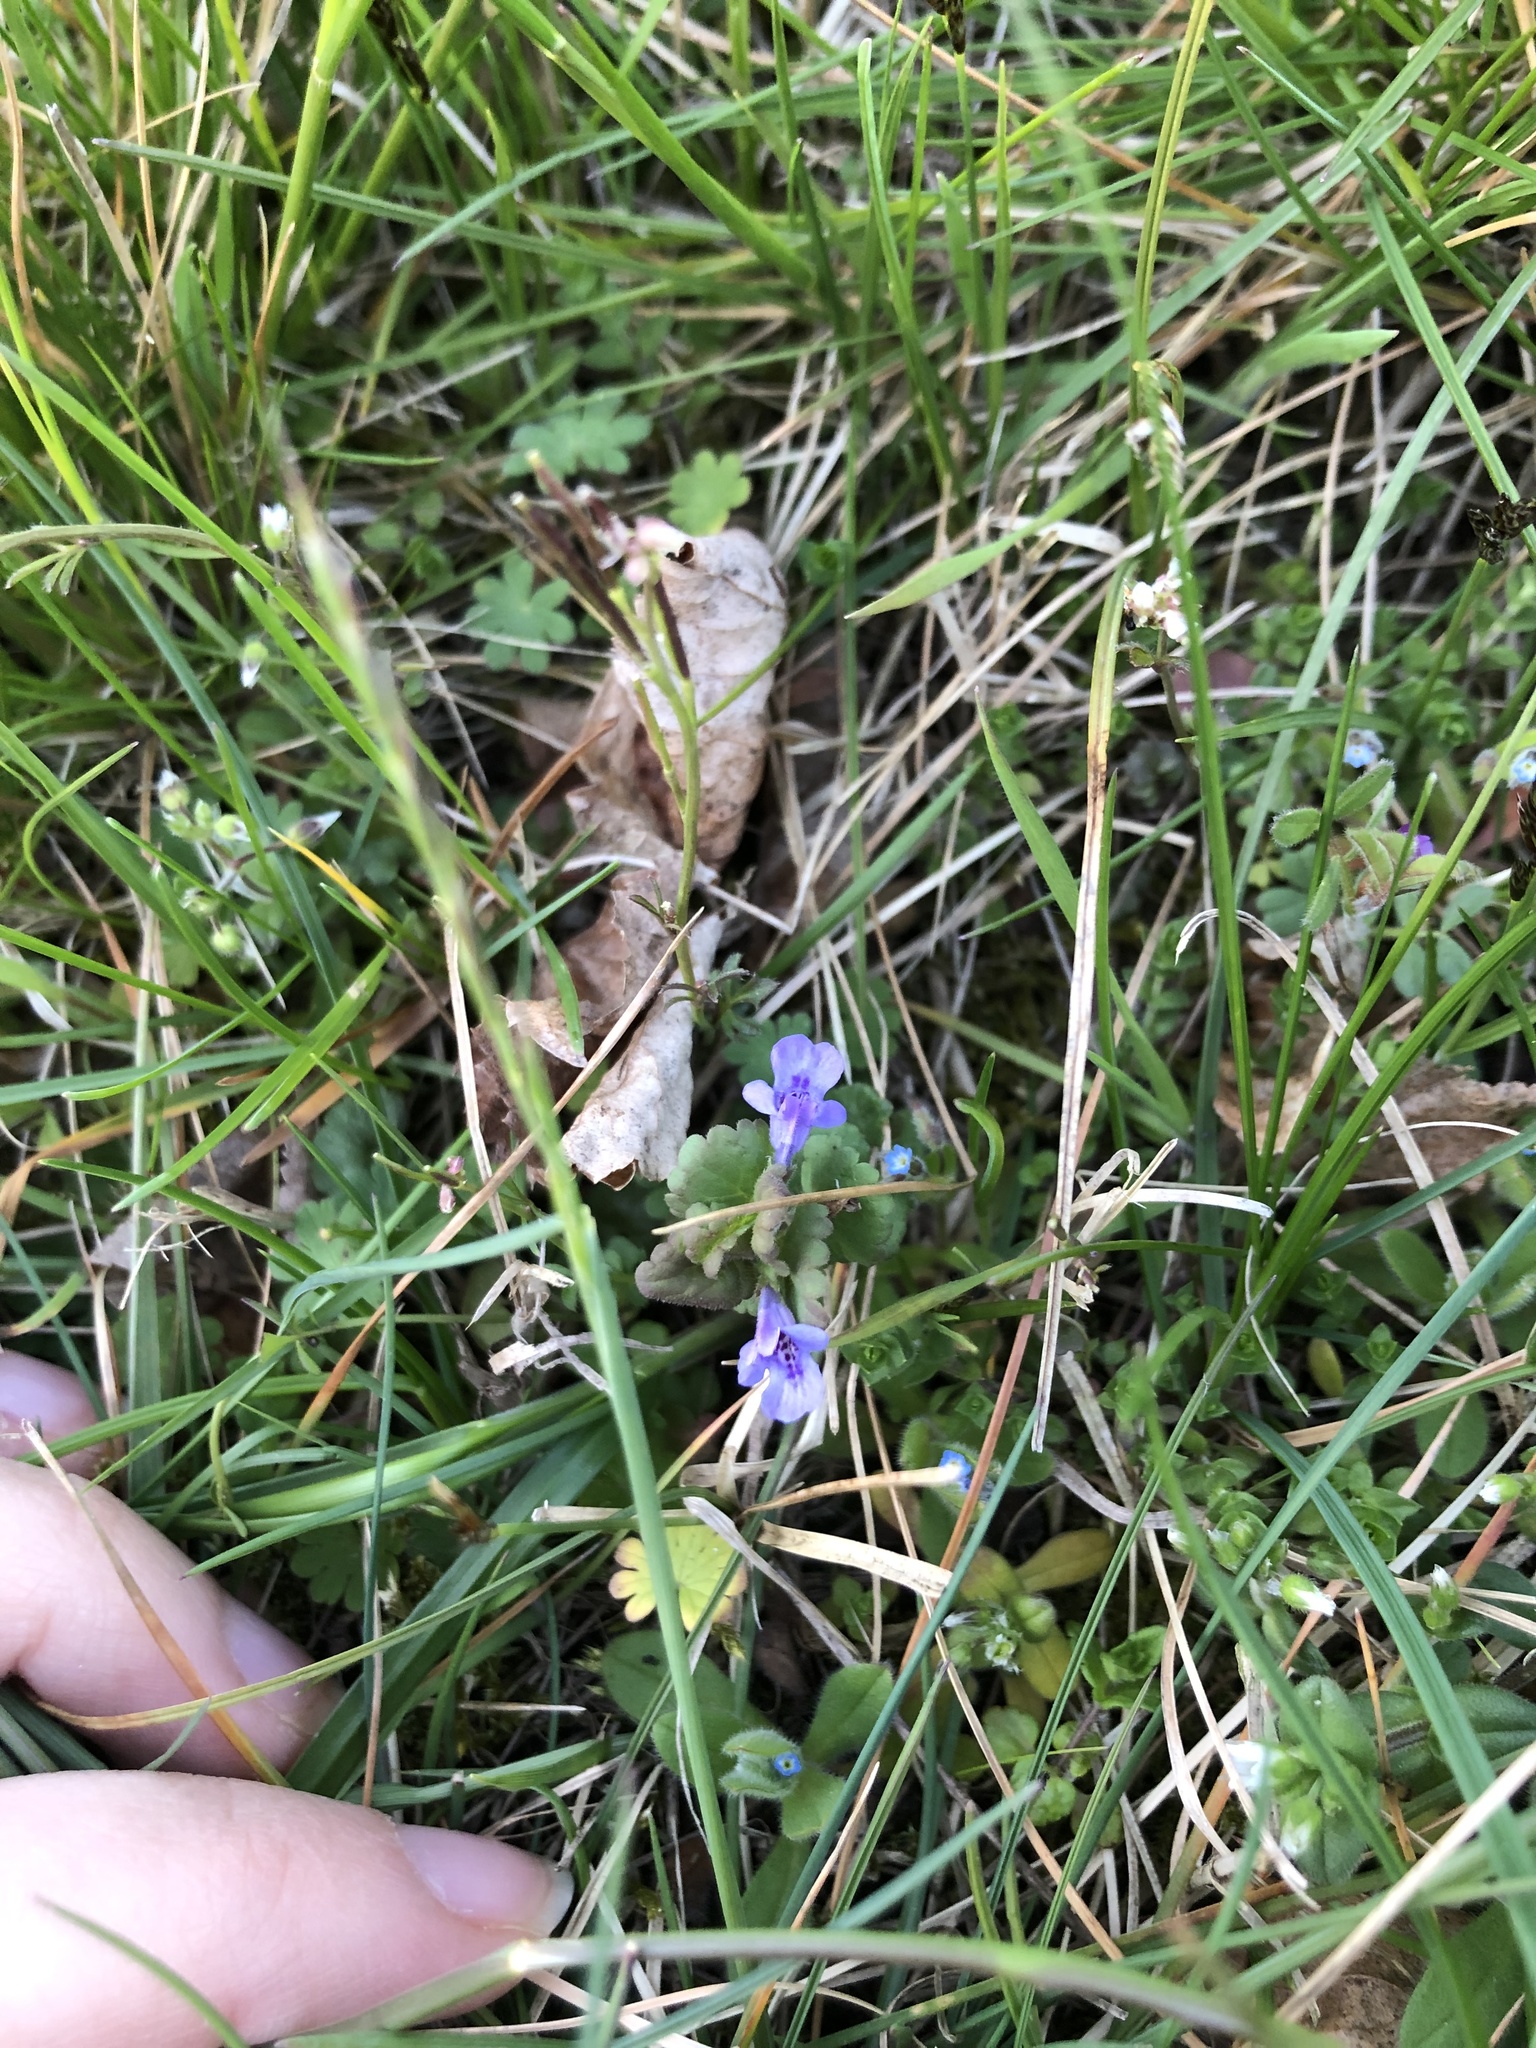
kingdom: Plantae
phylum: Tracheophyta
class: Magnoliopsida
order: Lamiales
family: Lamiaceae
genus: Glechoma
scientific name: Glechoma hederacea
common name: Ground ivy
